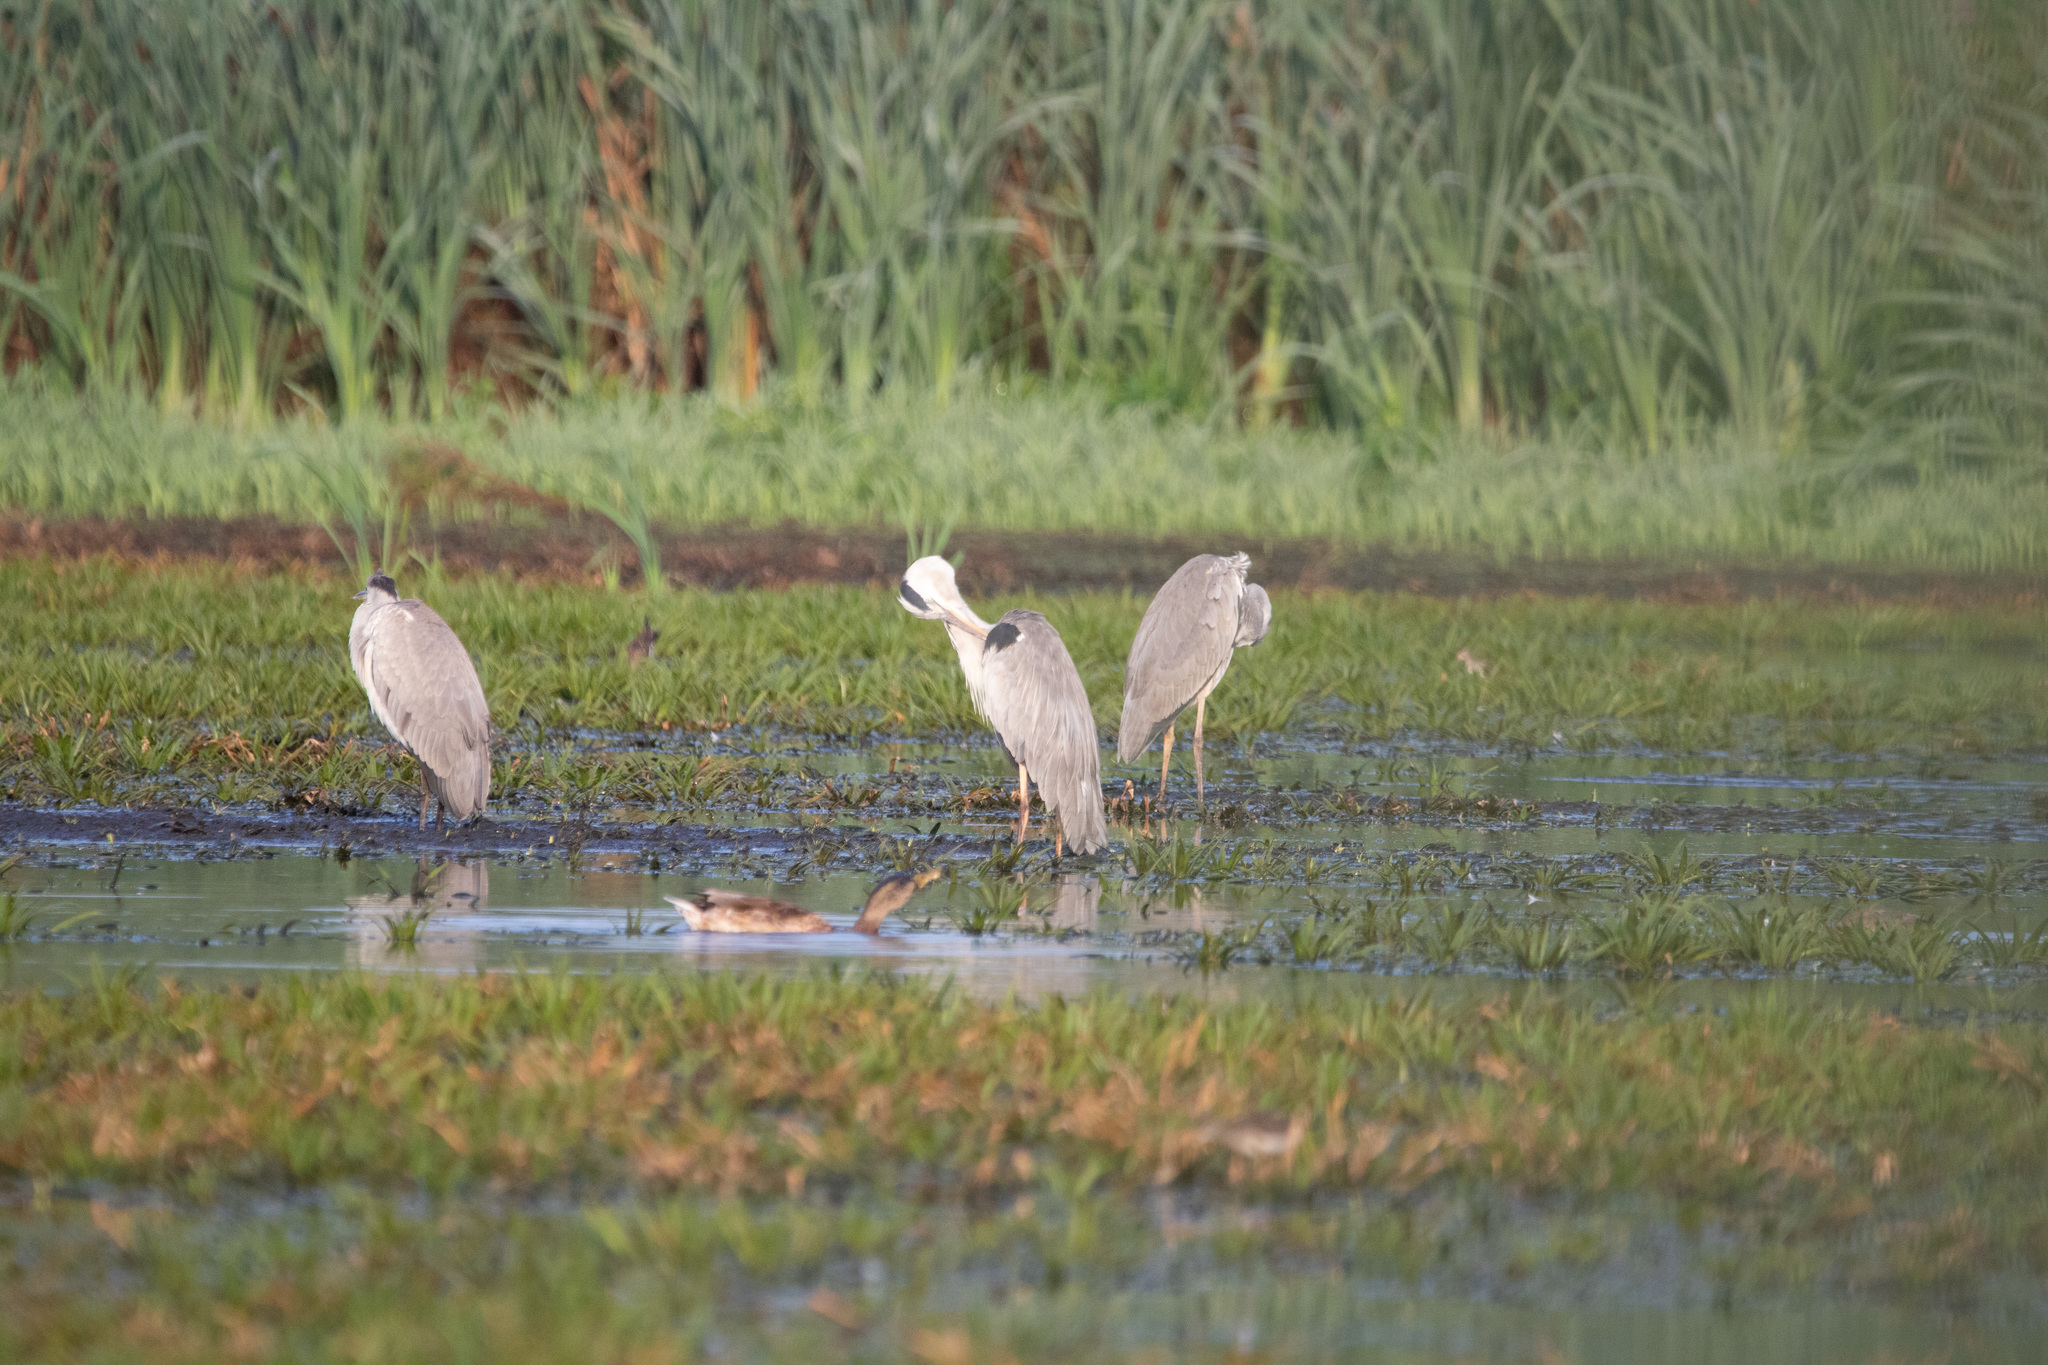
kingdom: Animalia
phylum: Chordata
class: Aves
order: Pelecaniformes
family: Ardeidae
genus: Ardea
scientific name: Ardea cinerea
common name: Grey heron
